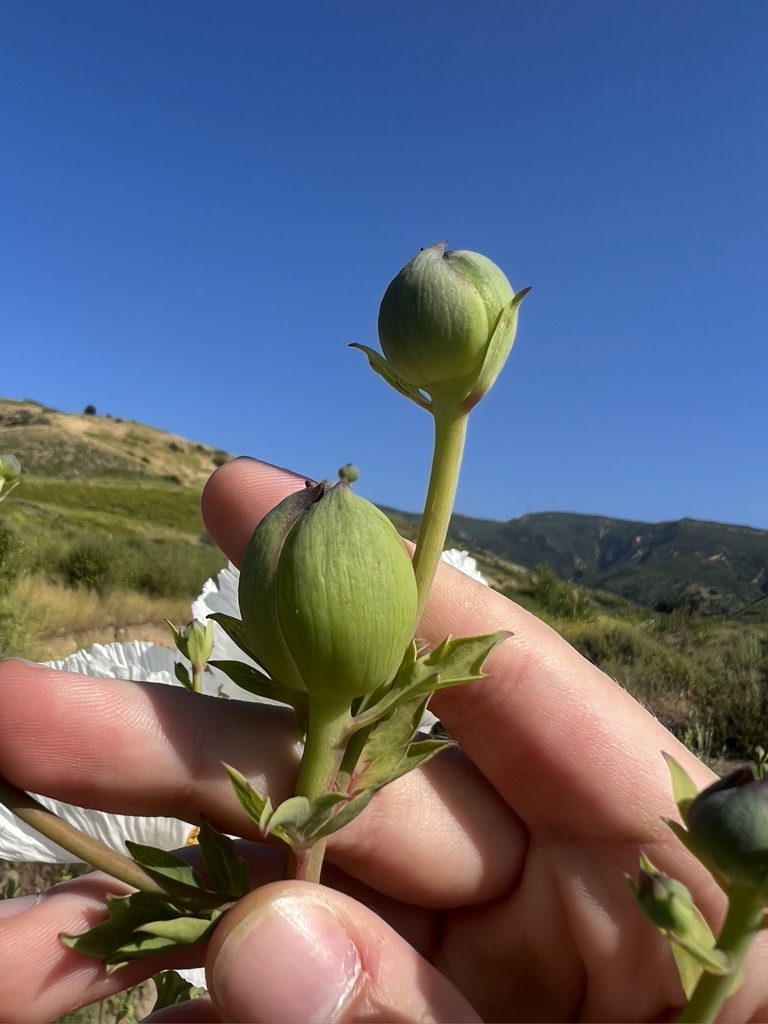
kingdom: Plantae
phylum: Tracheophyta
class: Magnoliopsida
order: Ranunculales
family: Papaveraceae
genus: Romneya
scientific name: Romneya coulteri
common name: California tree-poppy
